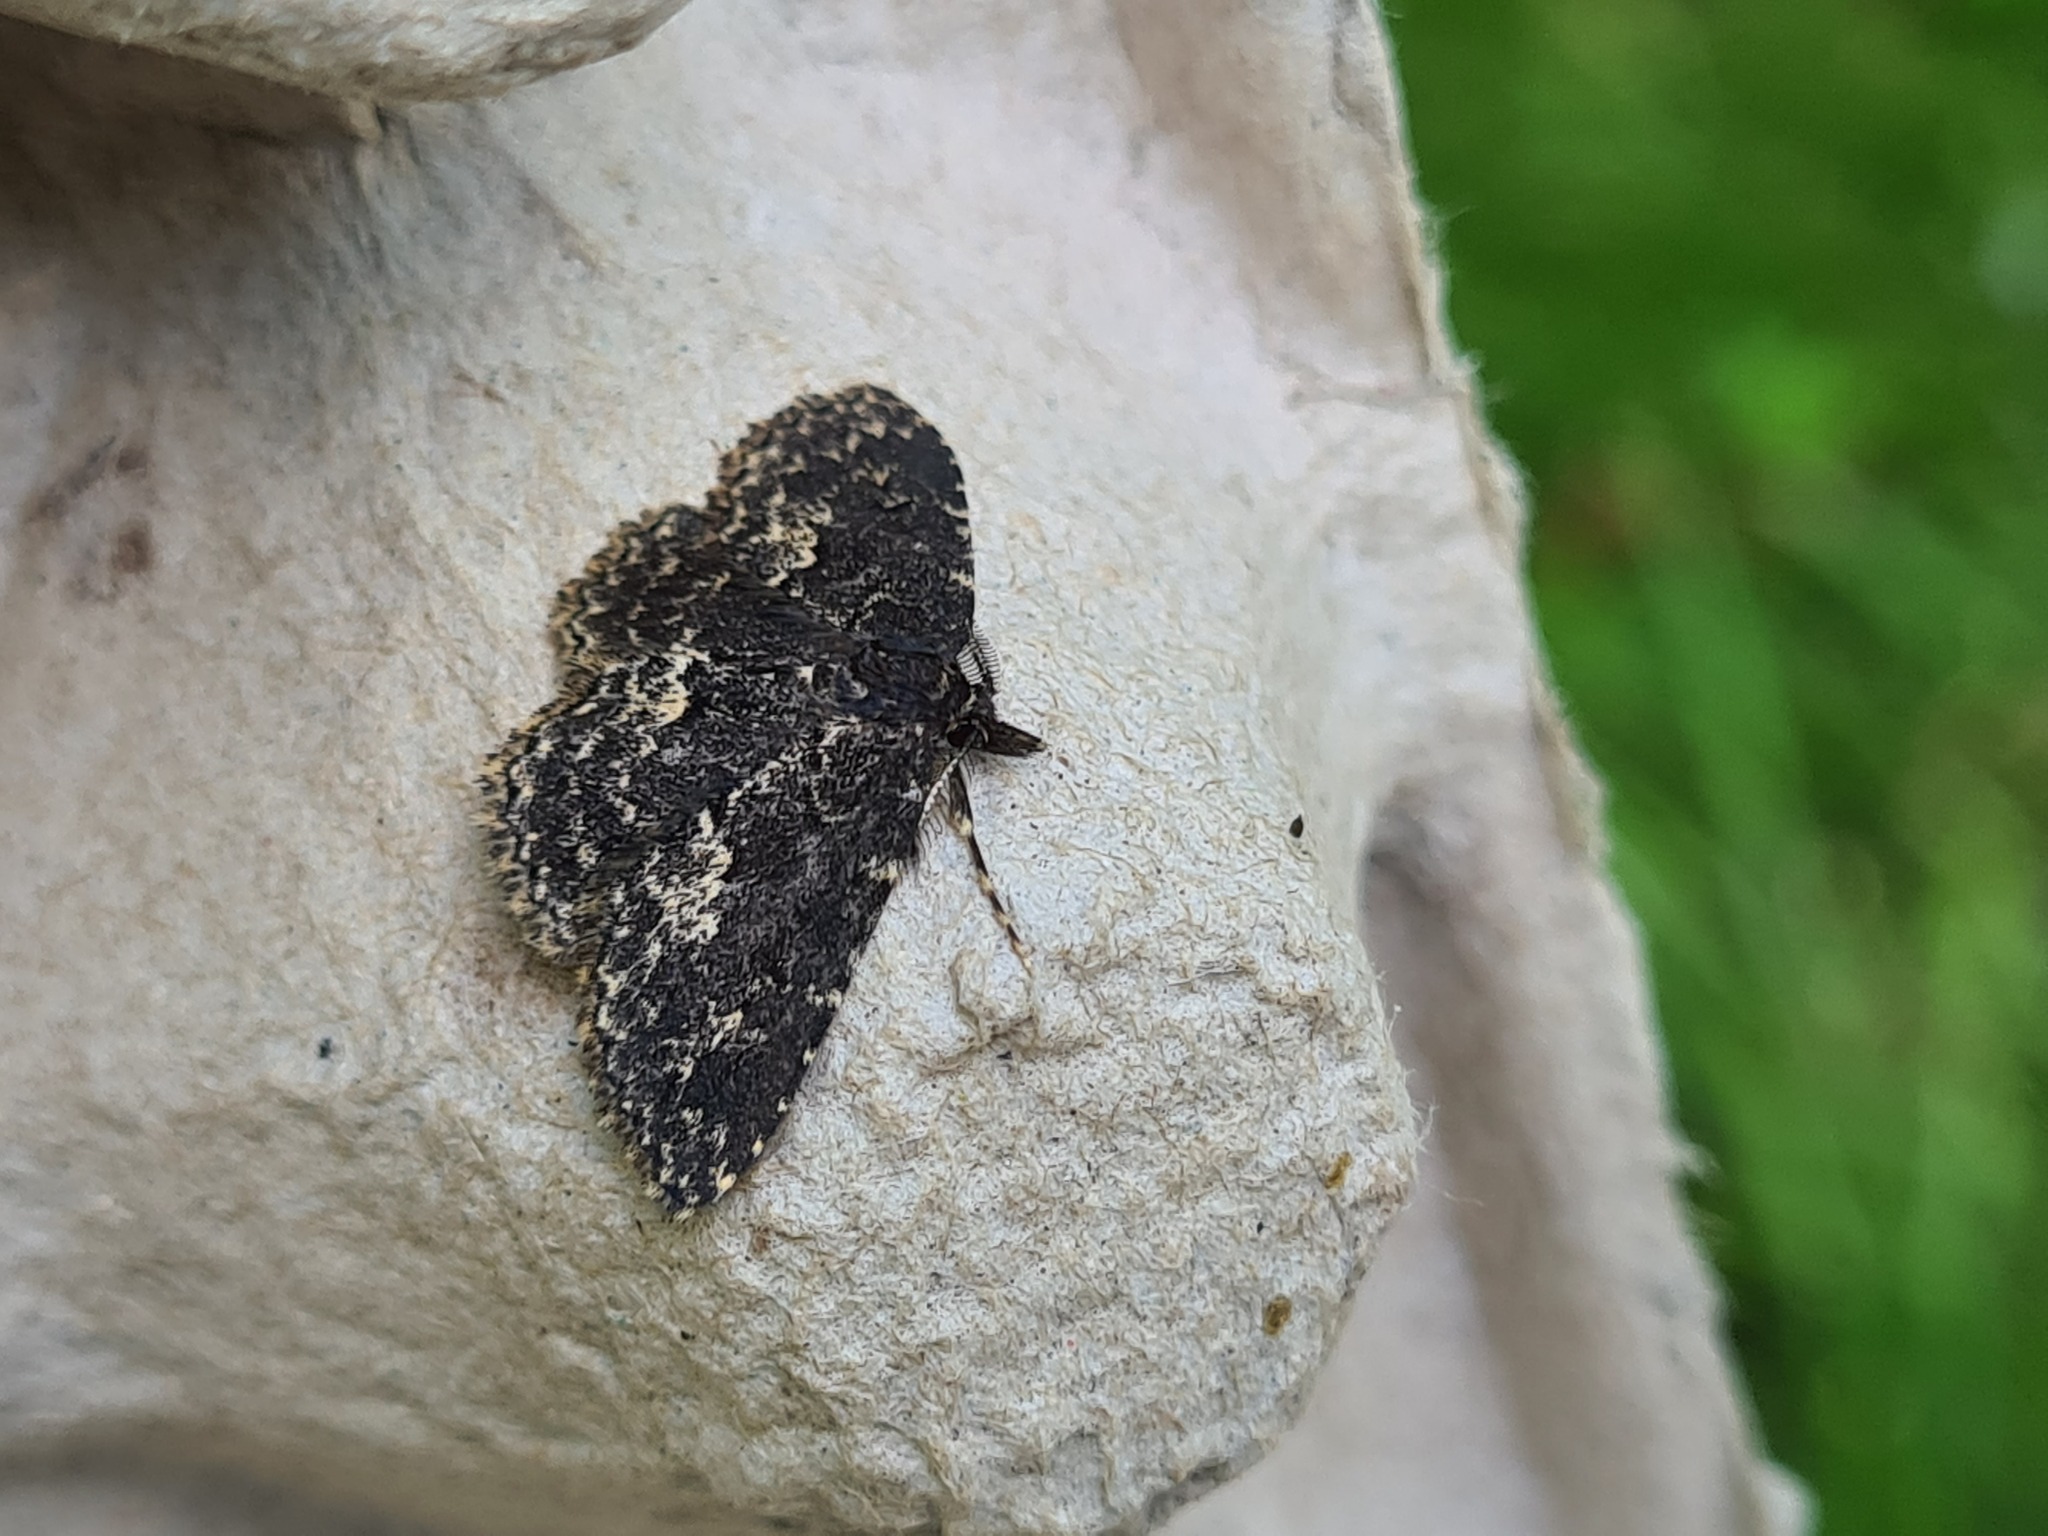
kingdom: Animalia
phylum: Arthropoda
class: Insecta
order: Lepidoptera
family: Erebidae
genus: Parascotia
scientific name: Parascotia fuliginaria
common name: Waved black
